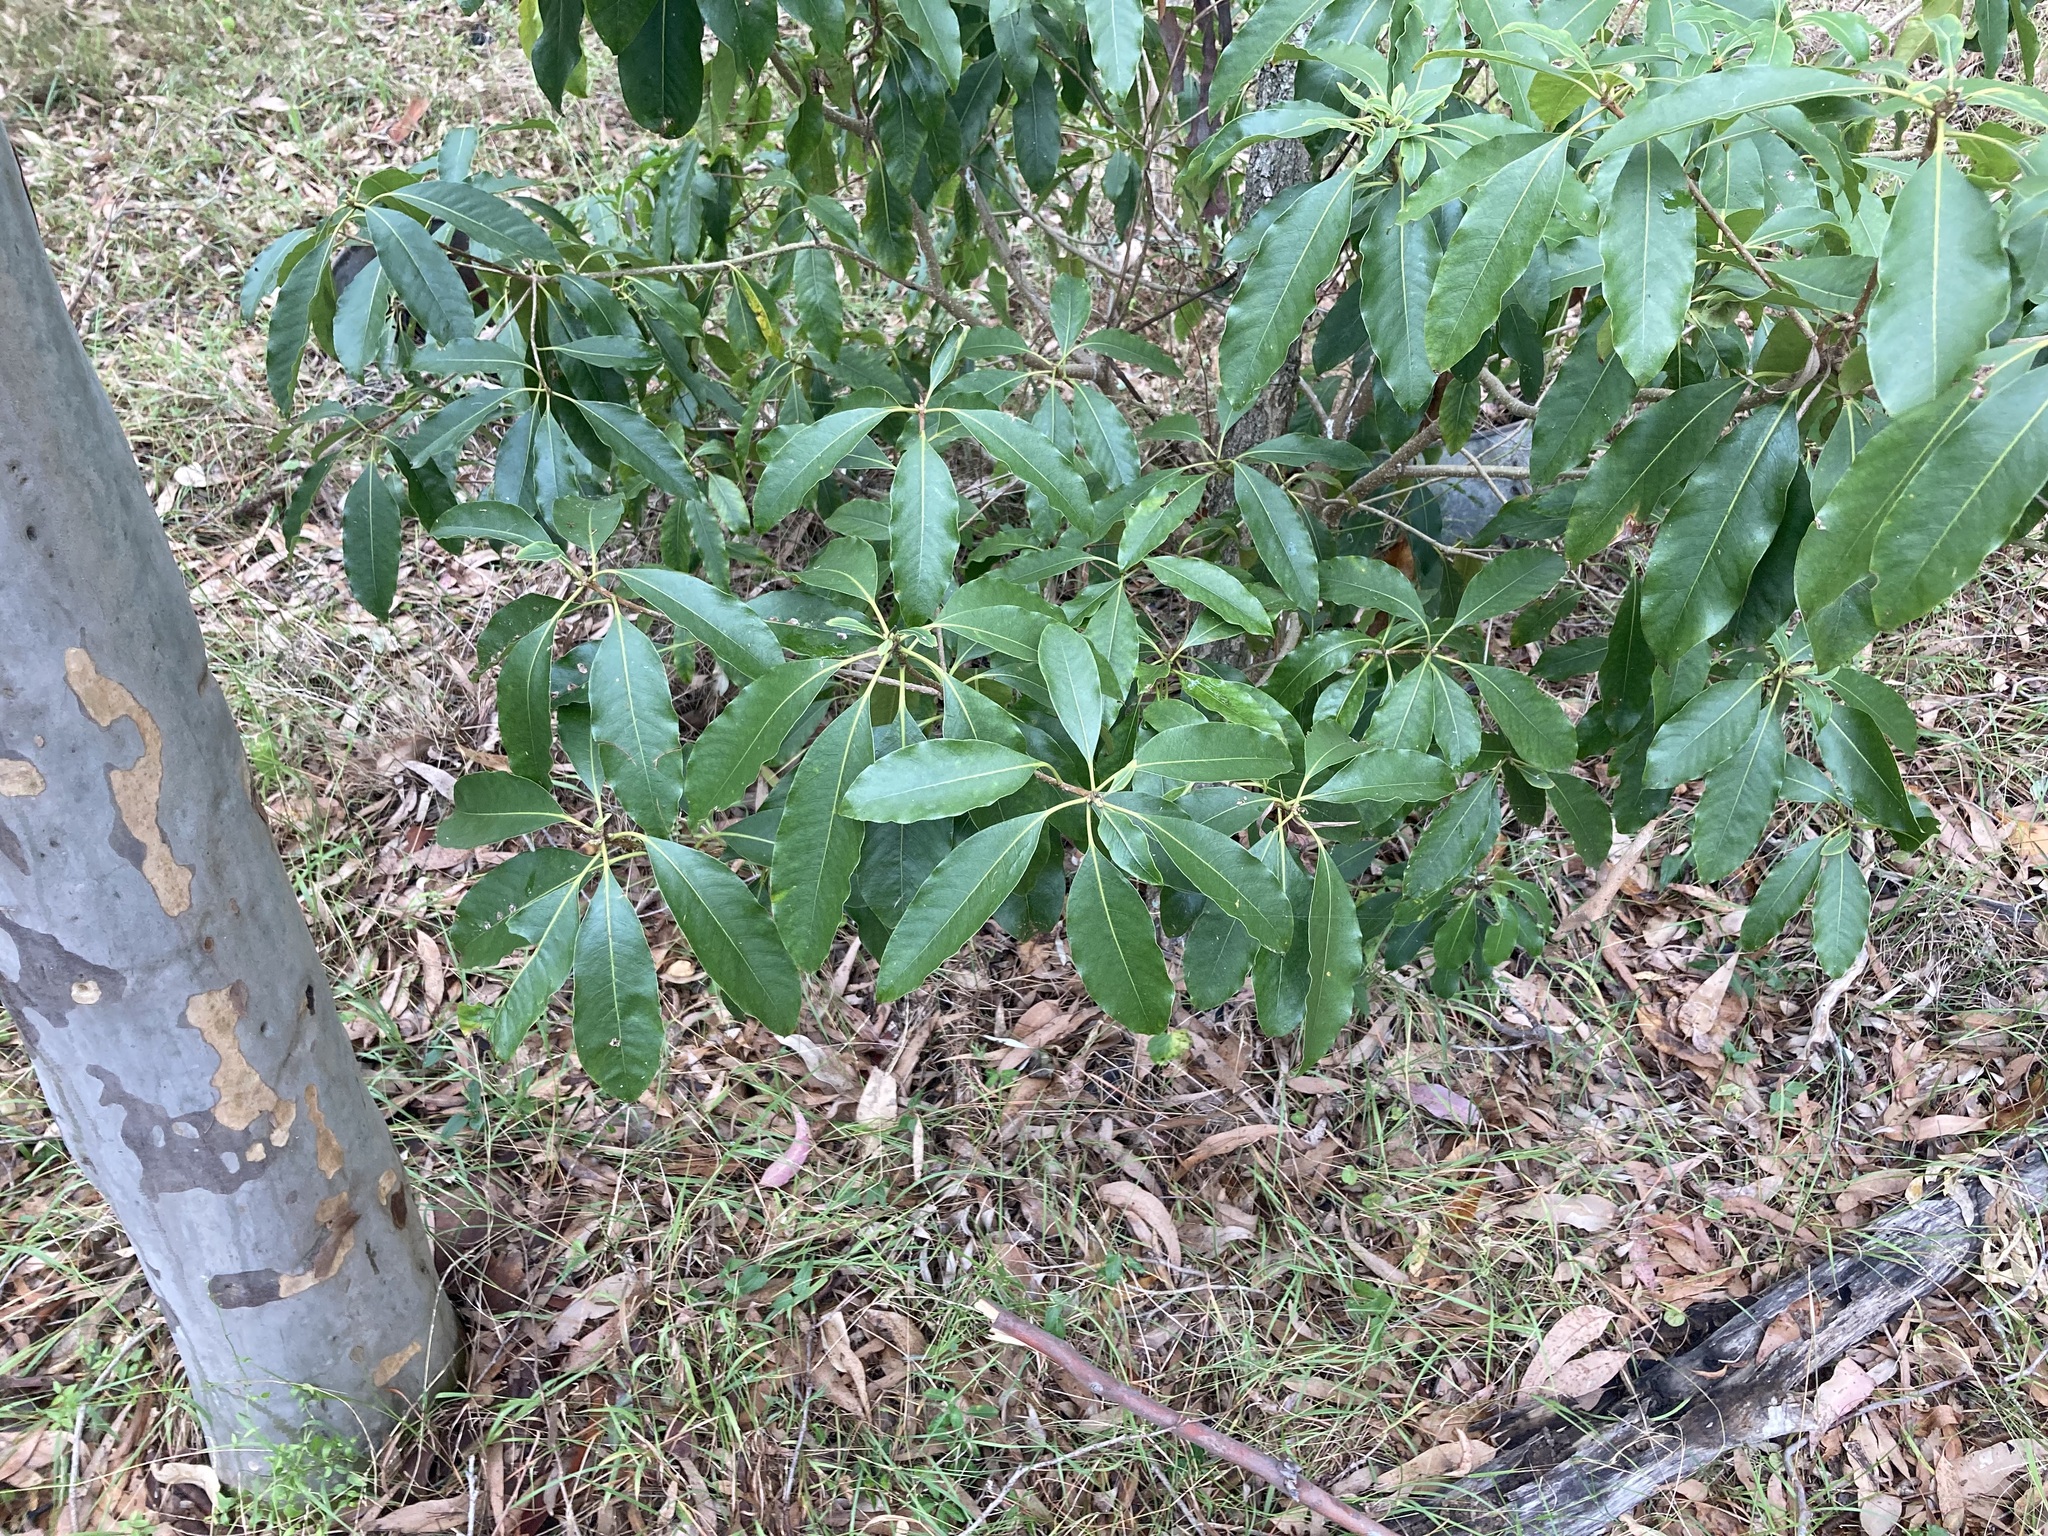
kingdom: Plantae
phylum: Tracheophyta
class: Magnoliopsida
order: Apiales
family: Pittosporaceae
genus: Pittosporum
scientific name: Pittosporum undulatum
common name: Australian cheesewood
